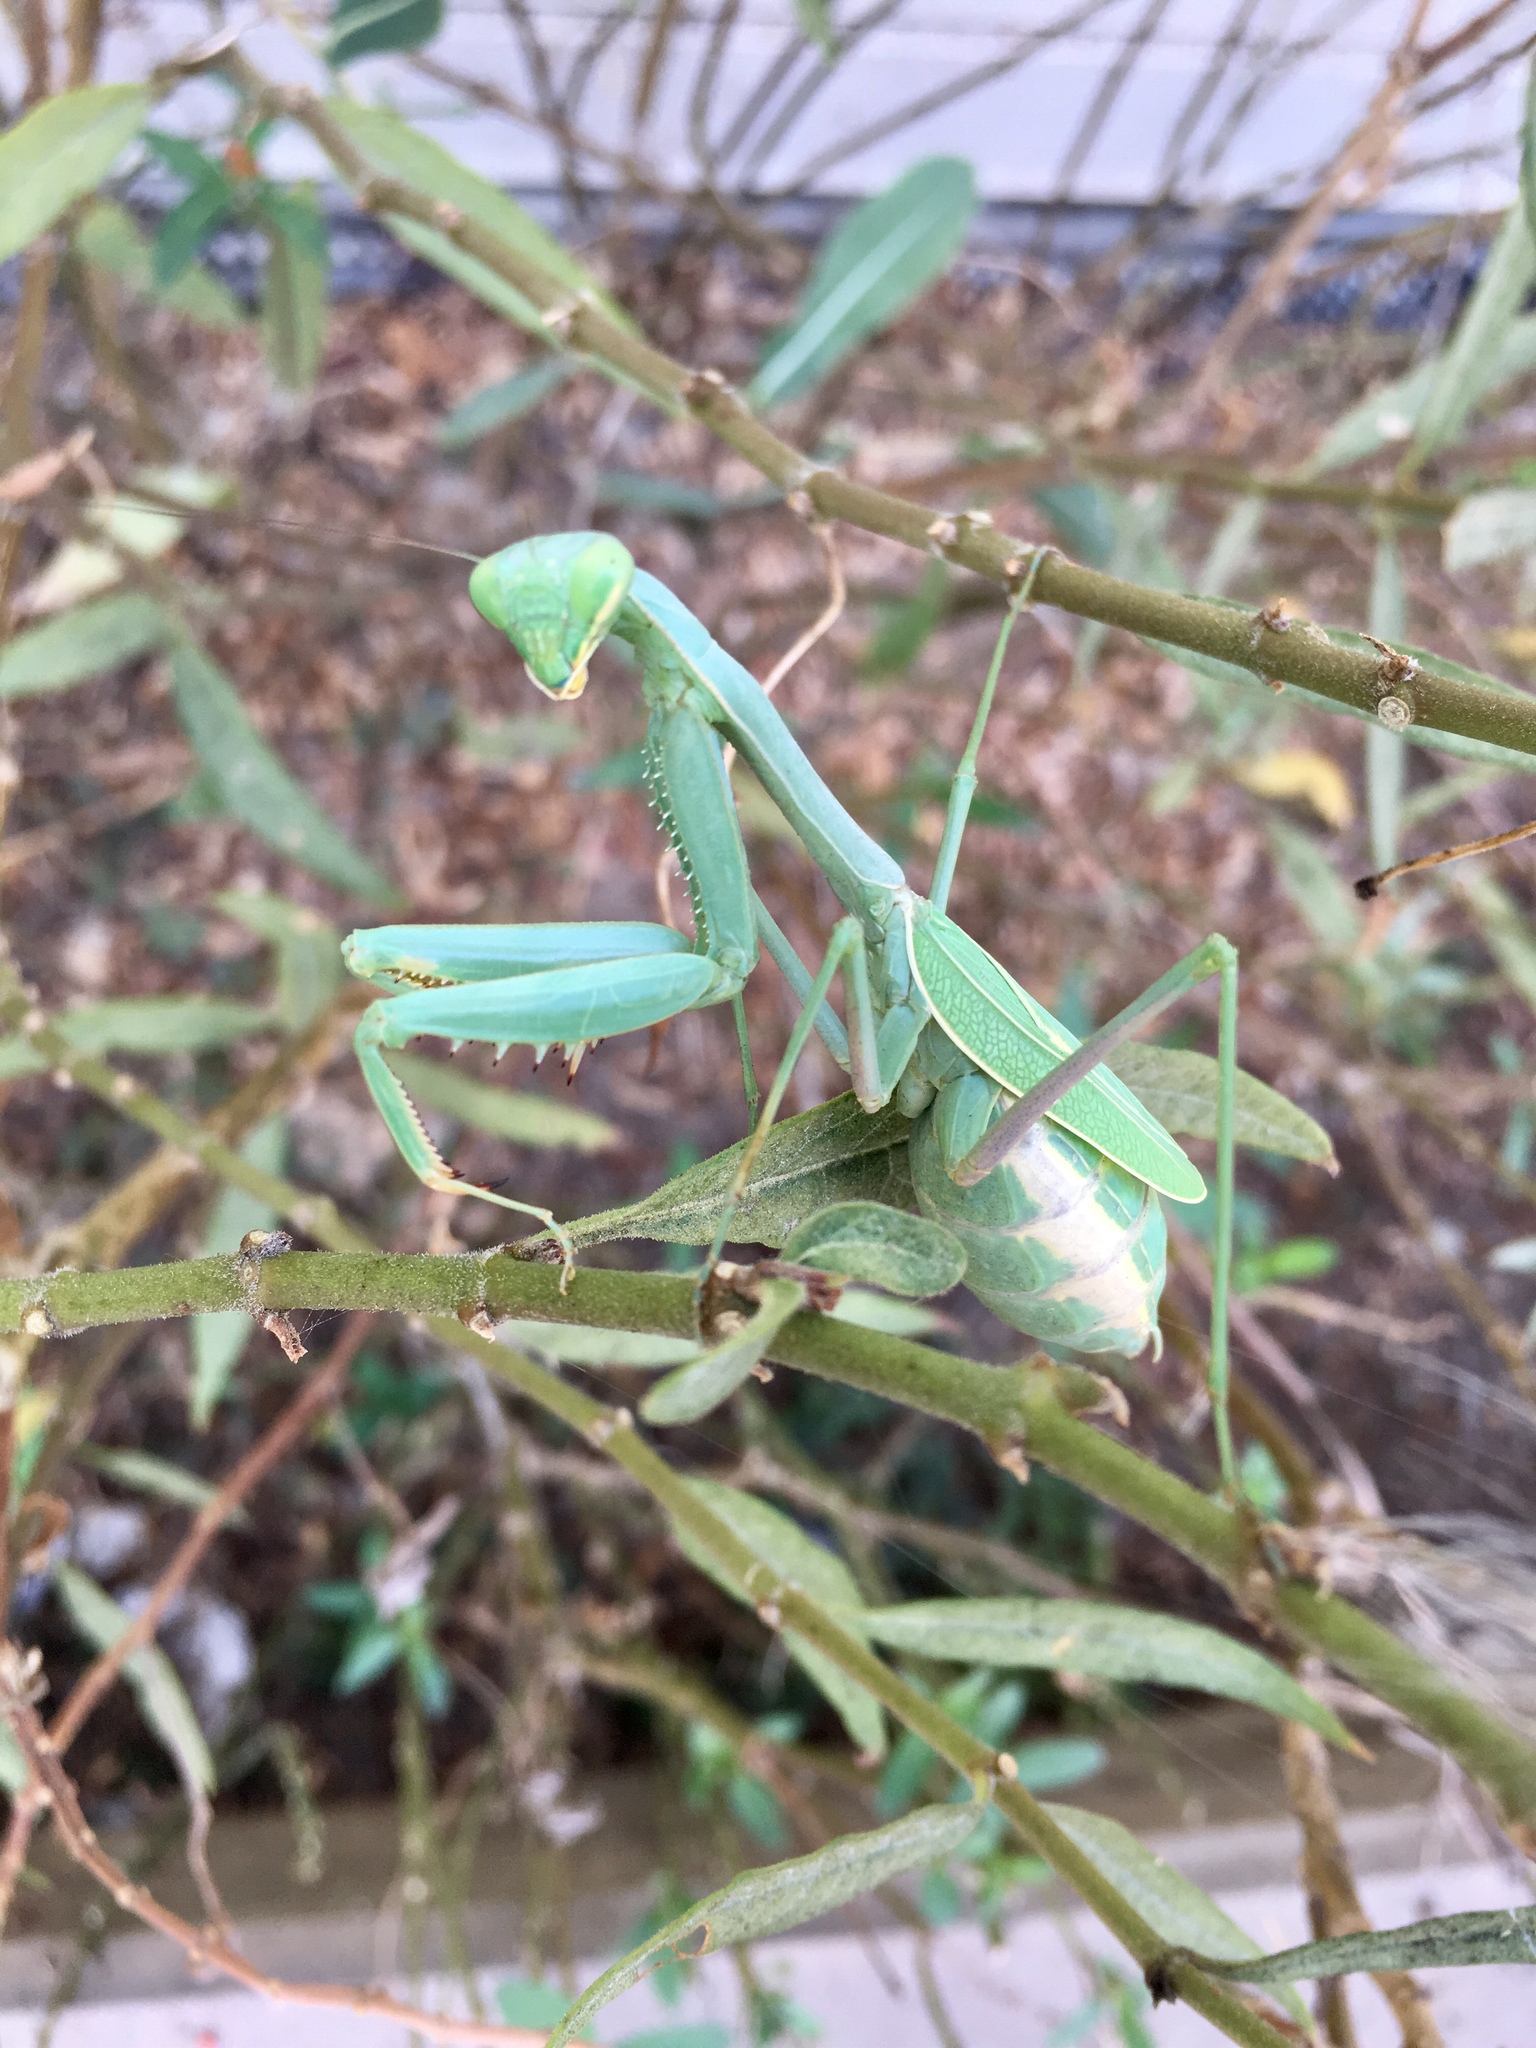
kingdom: Animalia
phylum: Arthropoda
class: Insecta
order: Mantodea
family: Mantidae
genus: Stagmomantis
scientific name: Stagmomantis limbata
